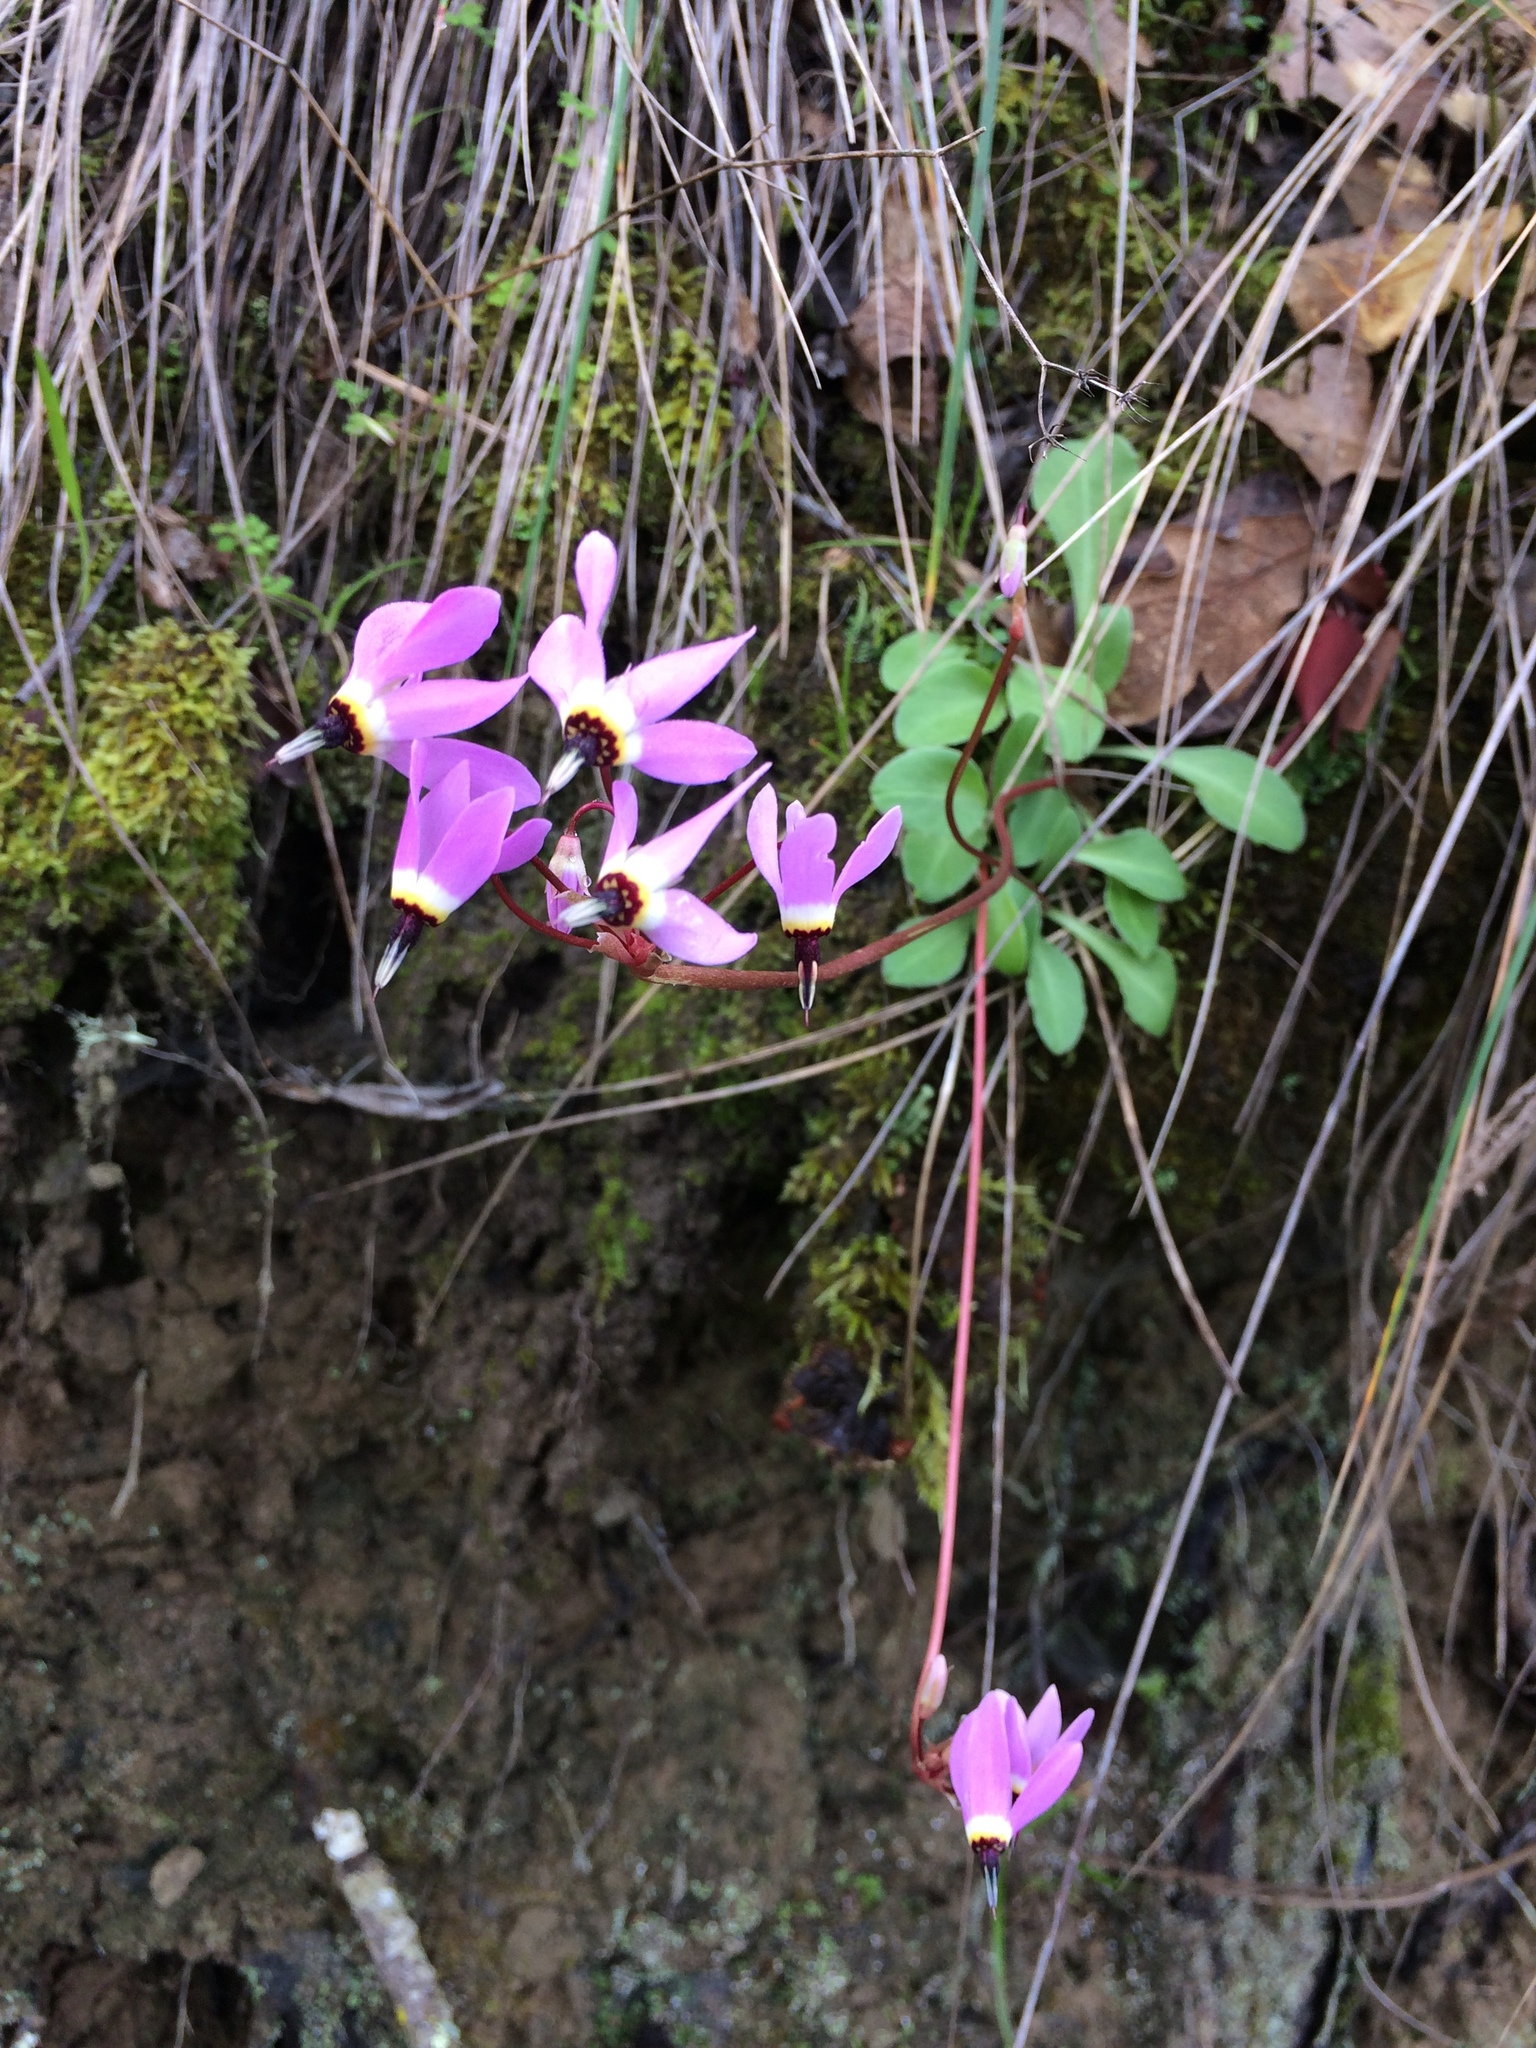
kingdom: Plantae
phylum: Tracheophyta
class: Magnoliopsida
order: Ericales
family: Primulaceae
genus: Dodecatheon
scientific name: Dodecatheon hendersonii
